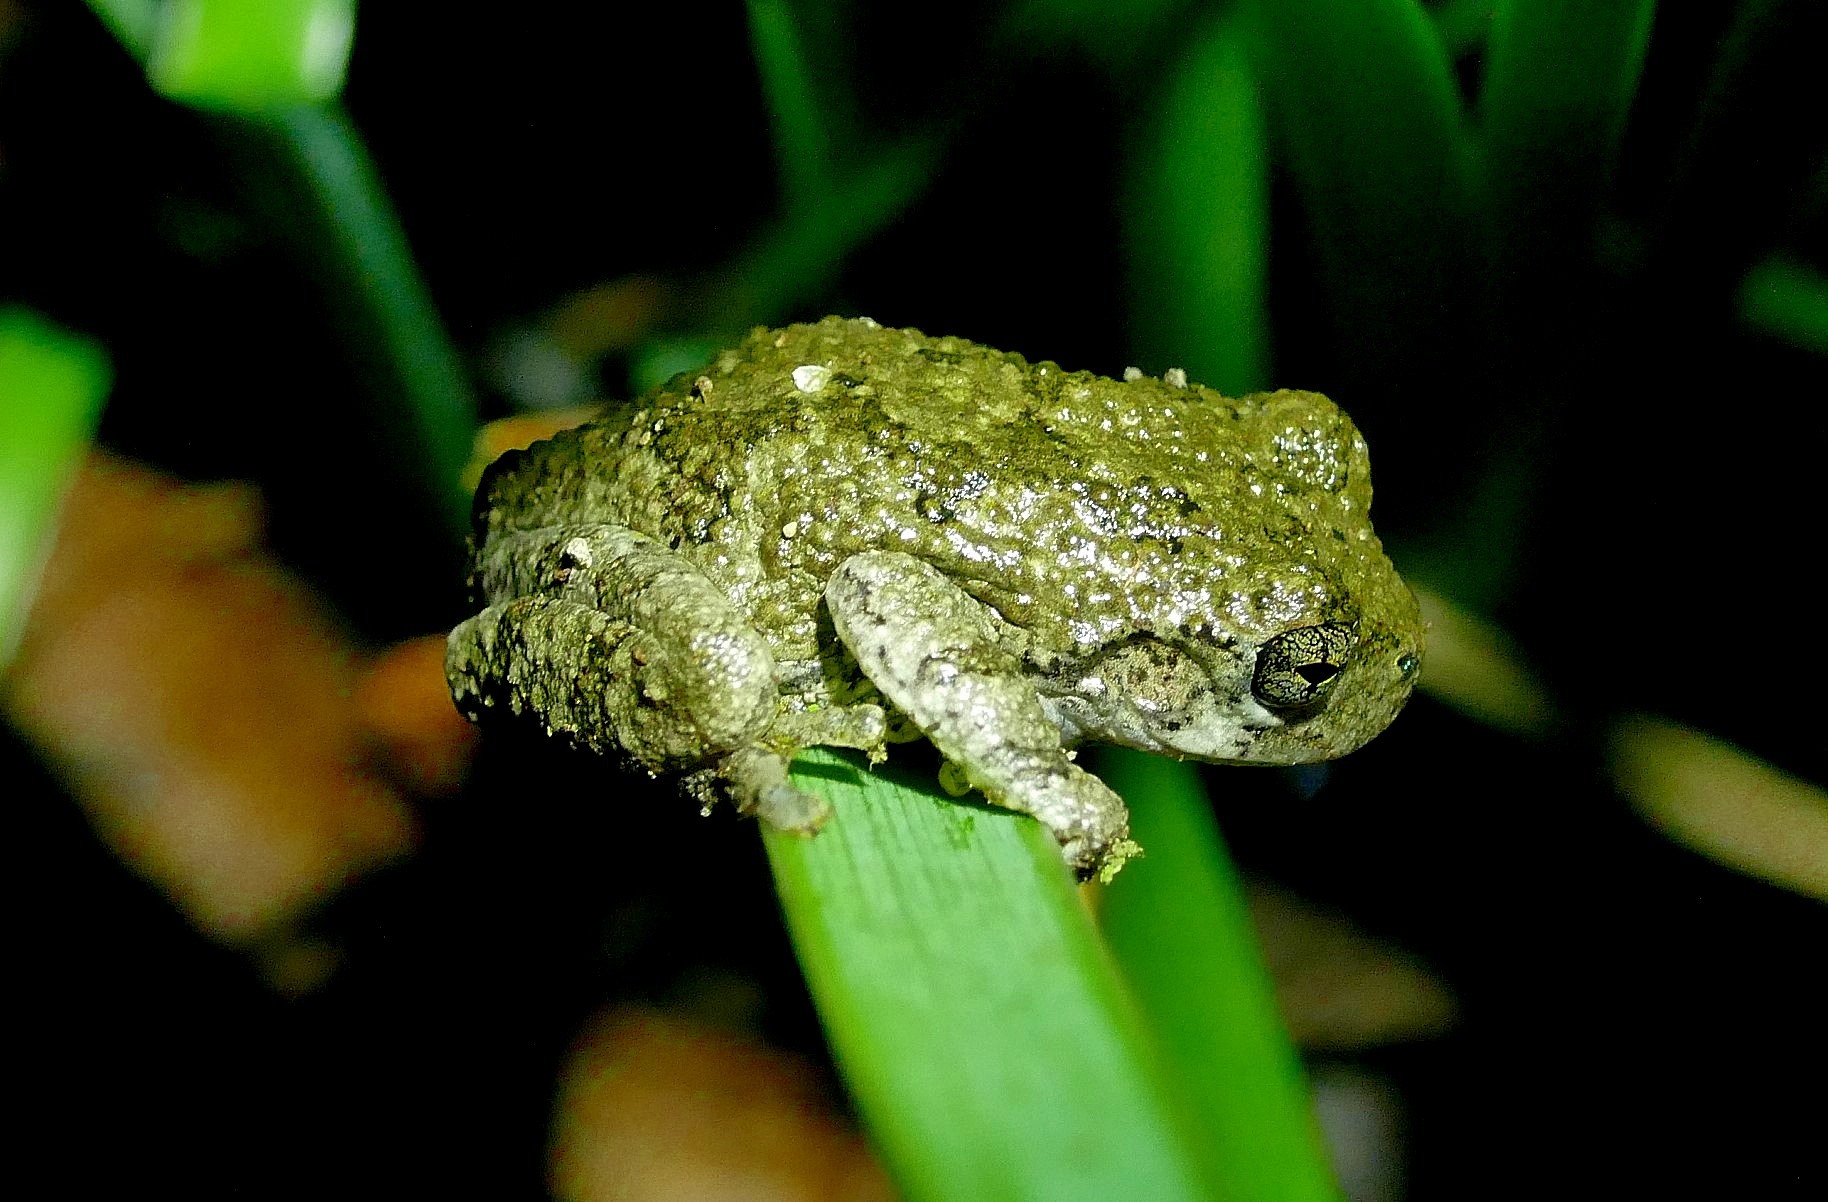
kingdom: Animalia
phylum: Chordata
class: Amphibia
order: Anura
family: Hylidae
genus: Dryophytes
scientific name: Dryophytes chrysoscelis
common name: Cope's gray treefrog
